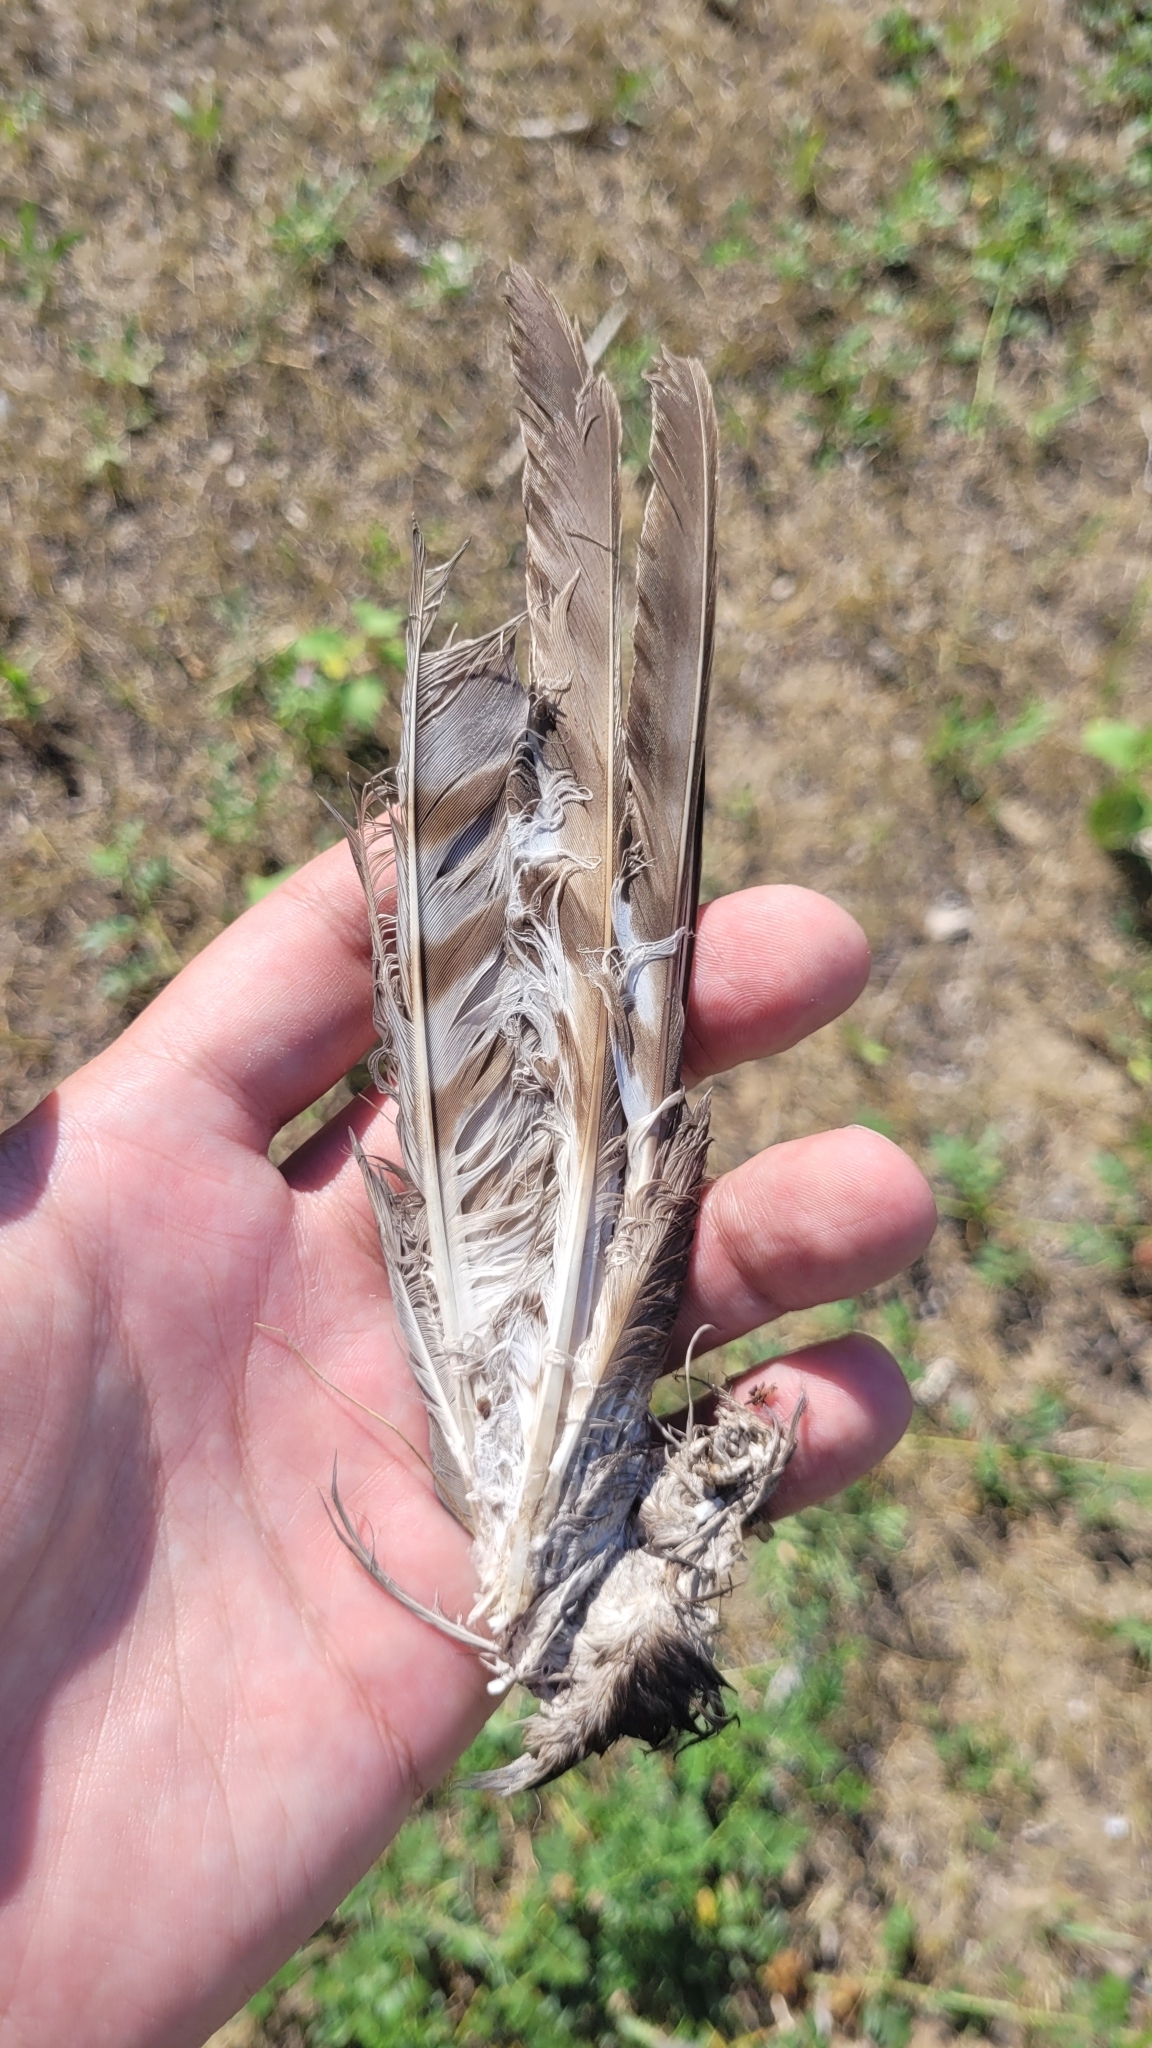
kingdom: Animalia
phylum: Chordata
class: Aves
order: Accipitriformes
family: Accipitridae
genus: Accipiter
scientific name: Accipiter nisus
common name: Eurasian sparrowhawk
